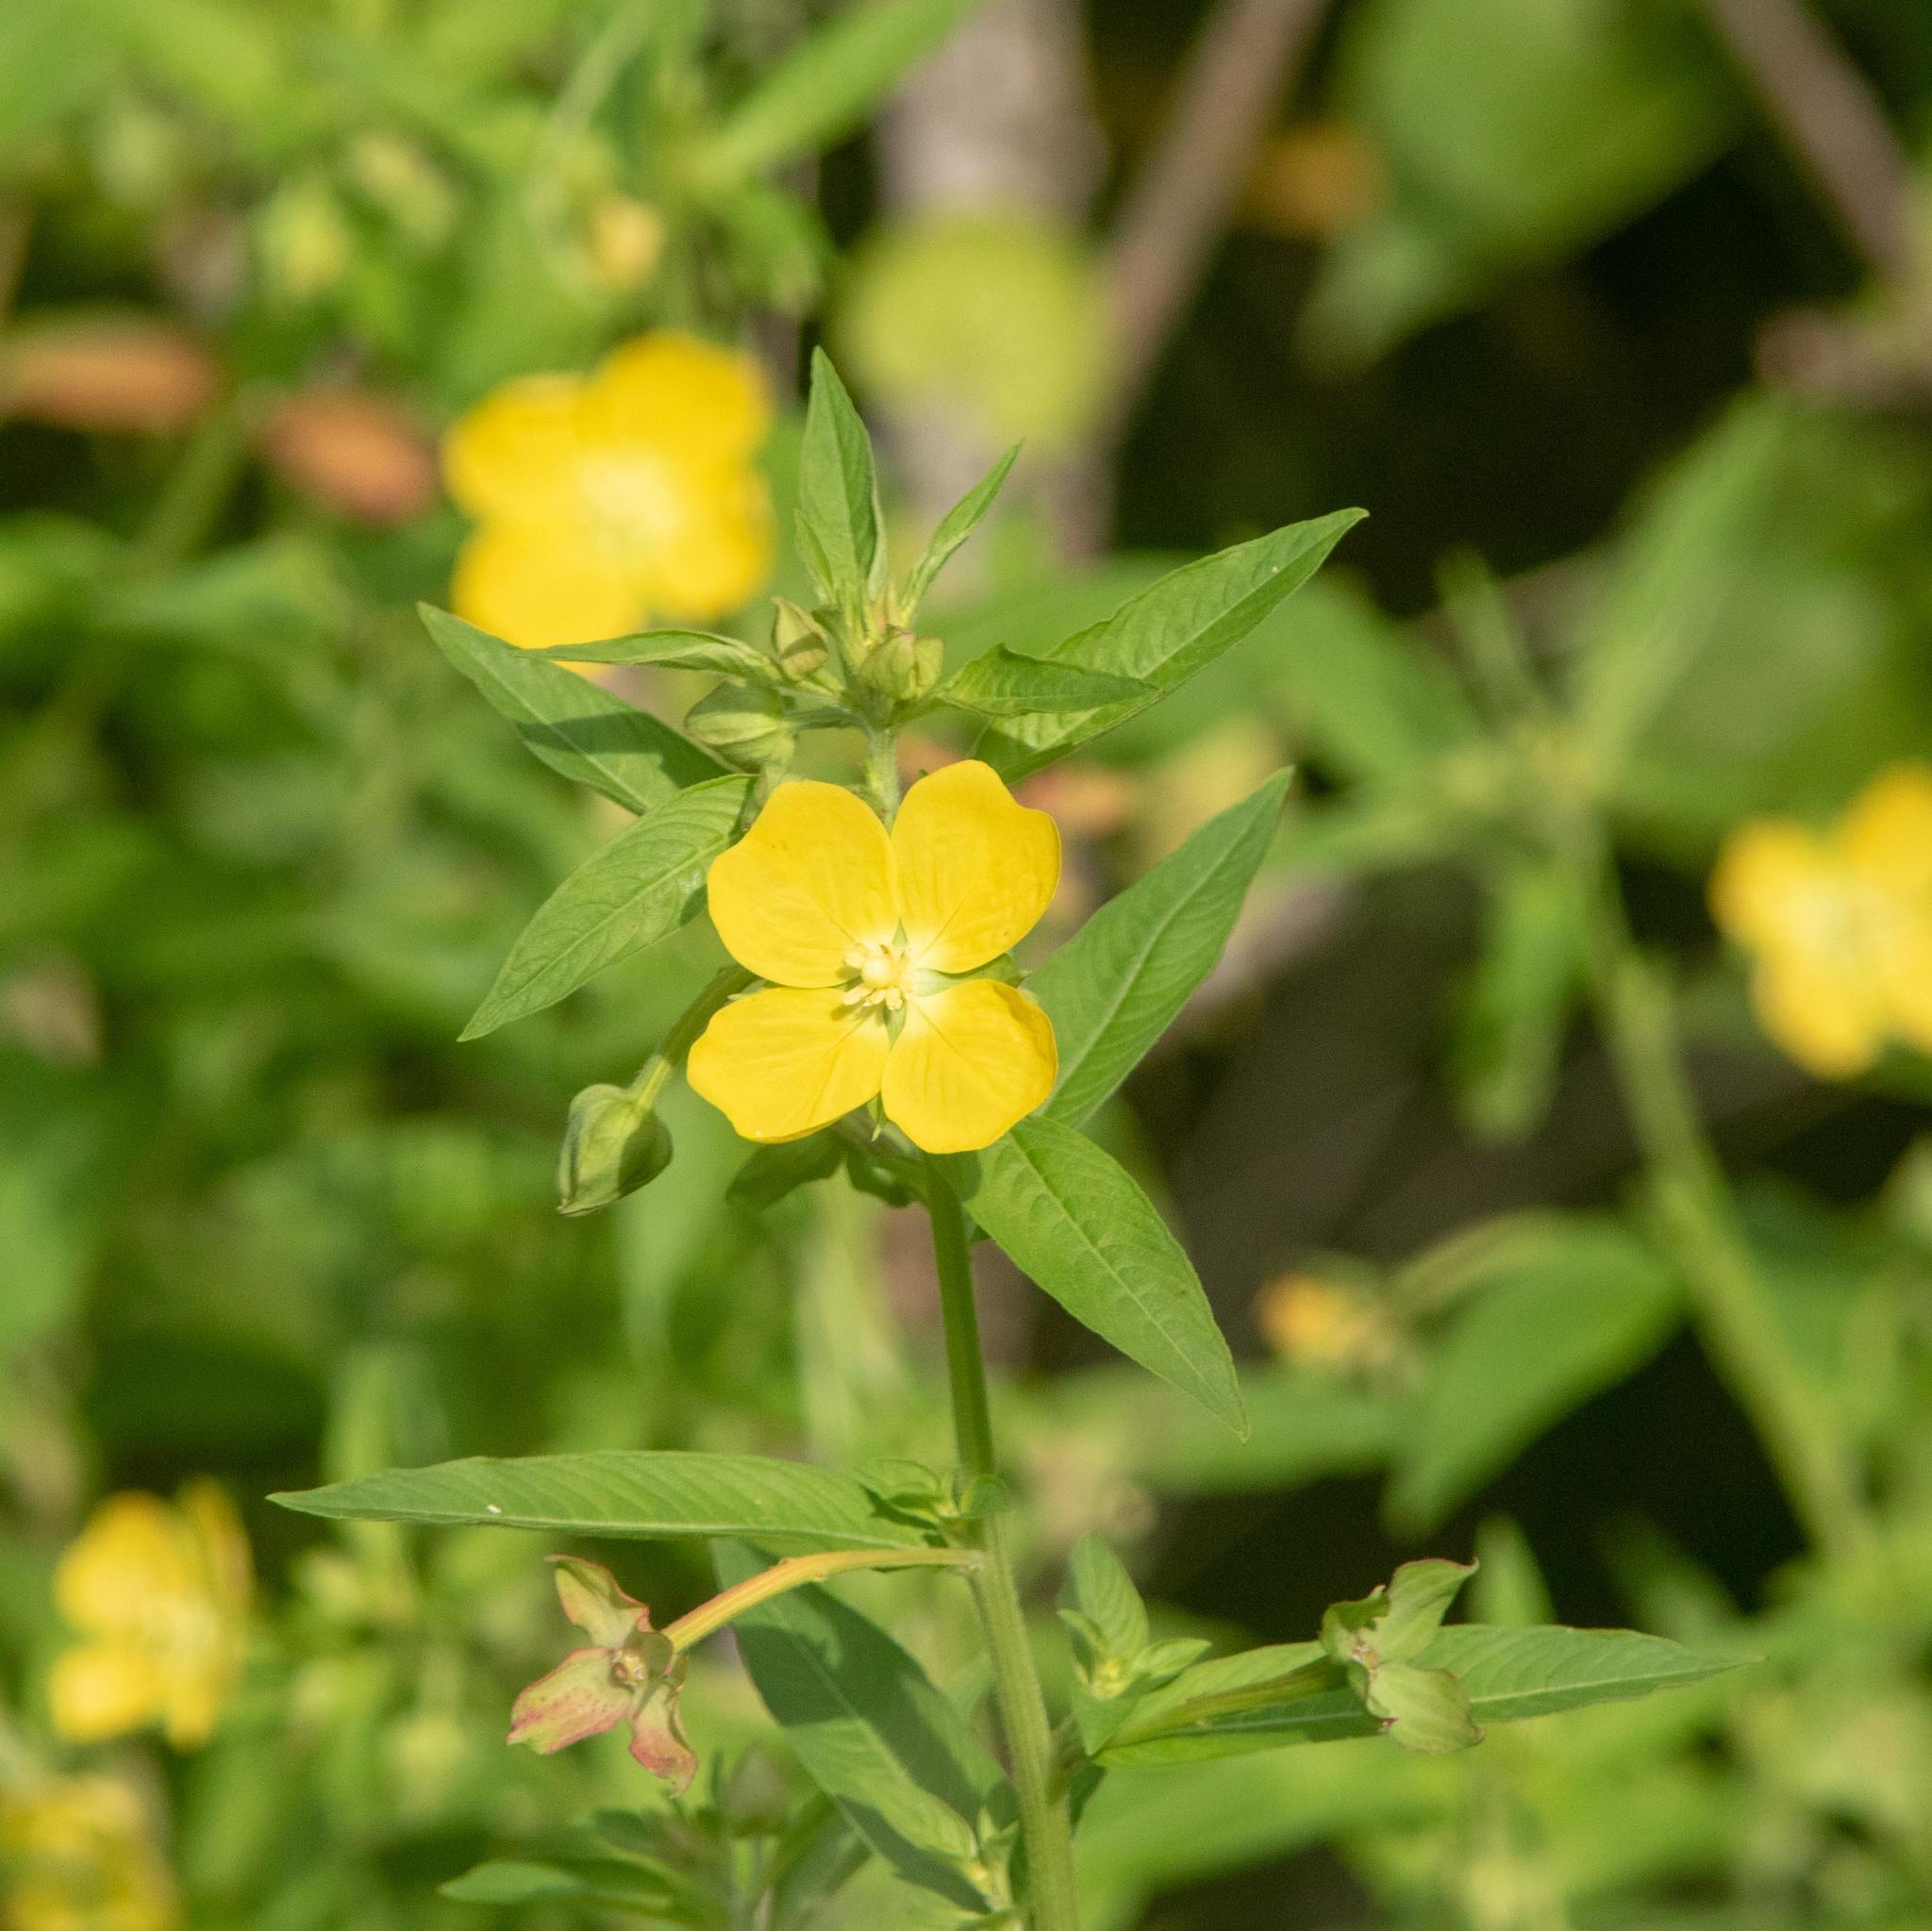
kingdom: Plantae
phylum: Tracheophyta
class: Magnoliopsida
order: Myrtales
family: Onagraceae
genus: Ludwigia
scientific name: Ludwigia octovalvis
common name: Water-primrose
